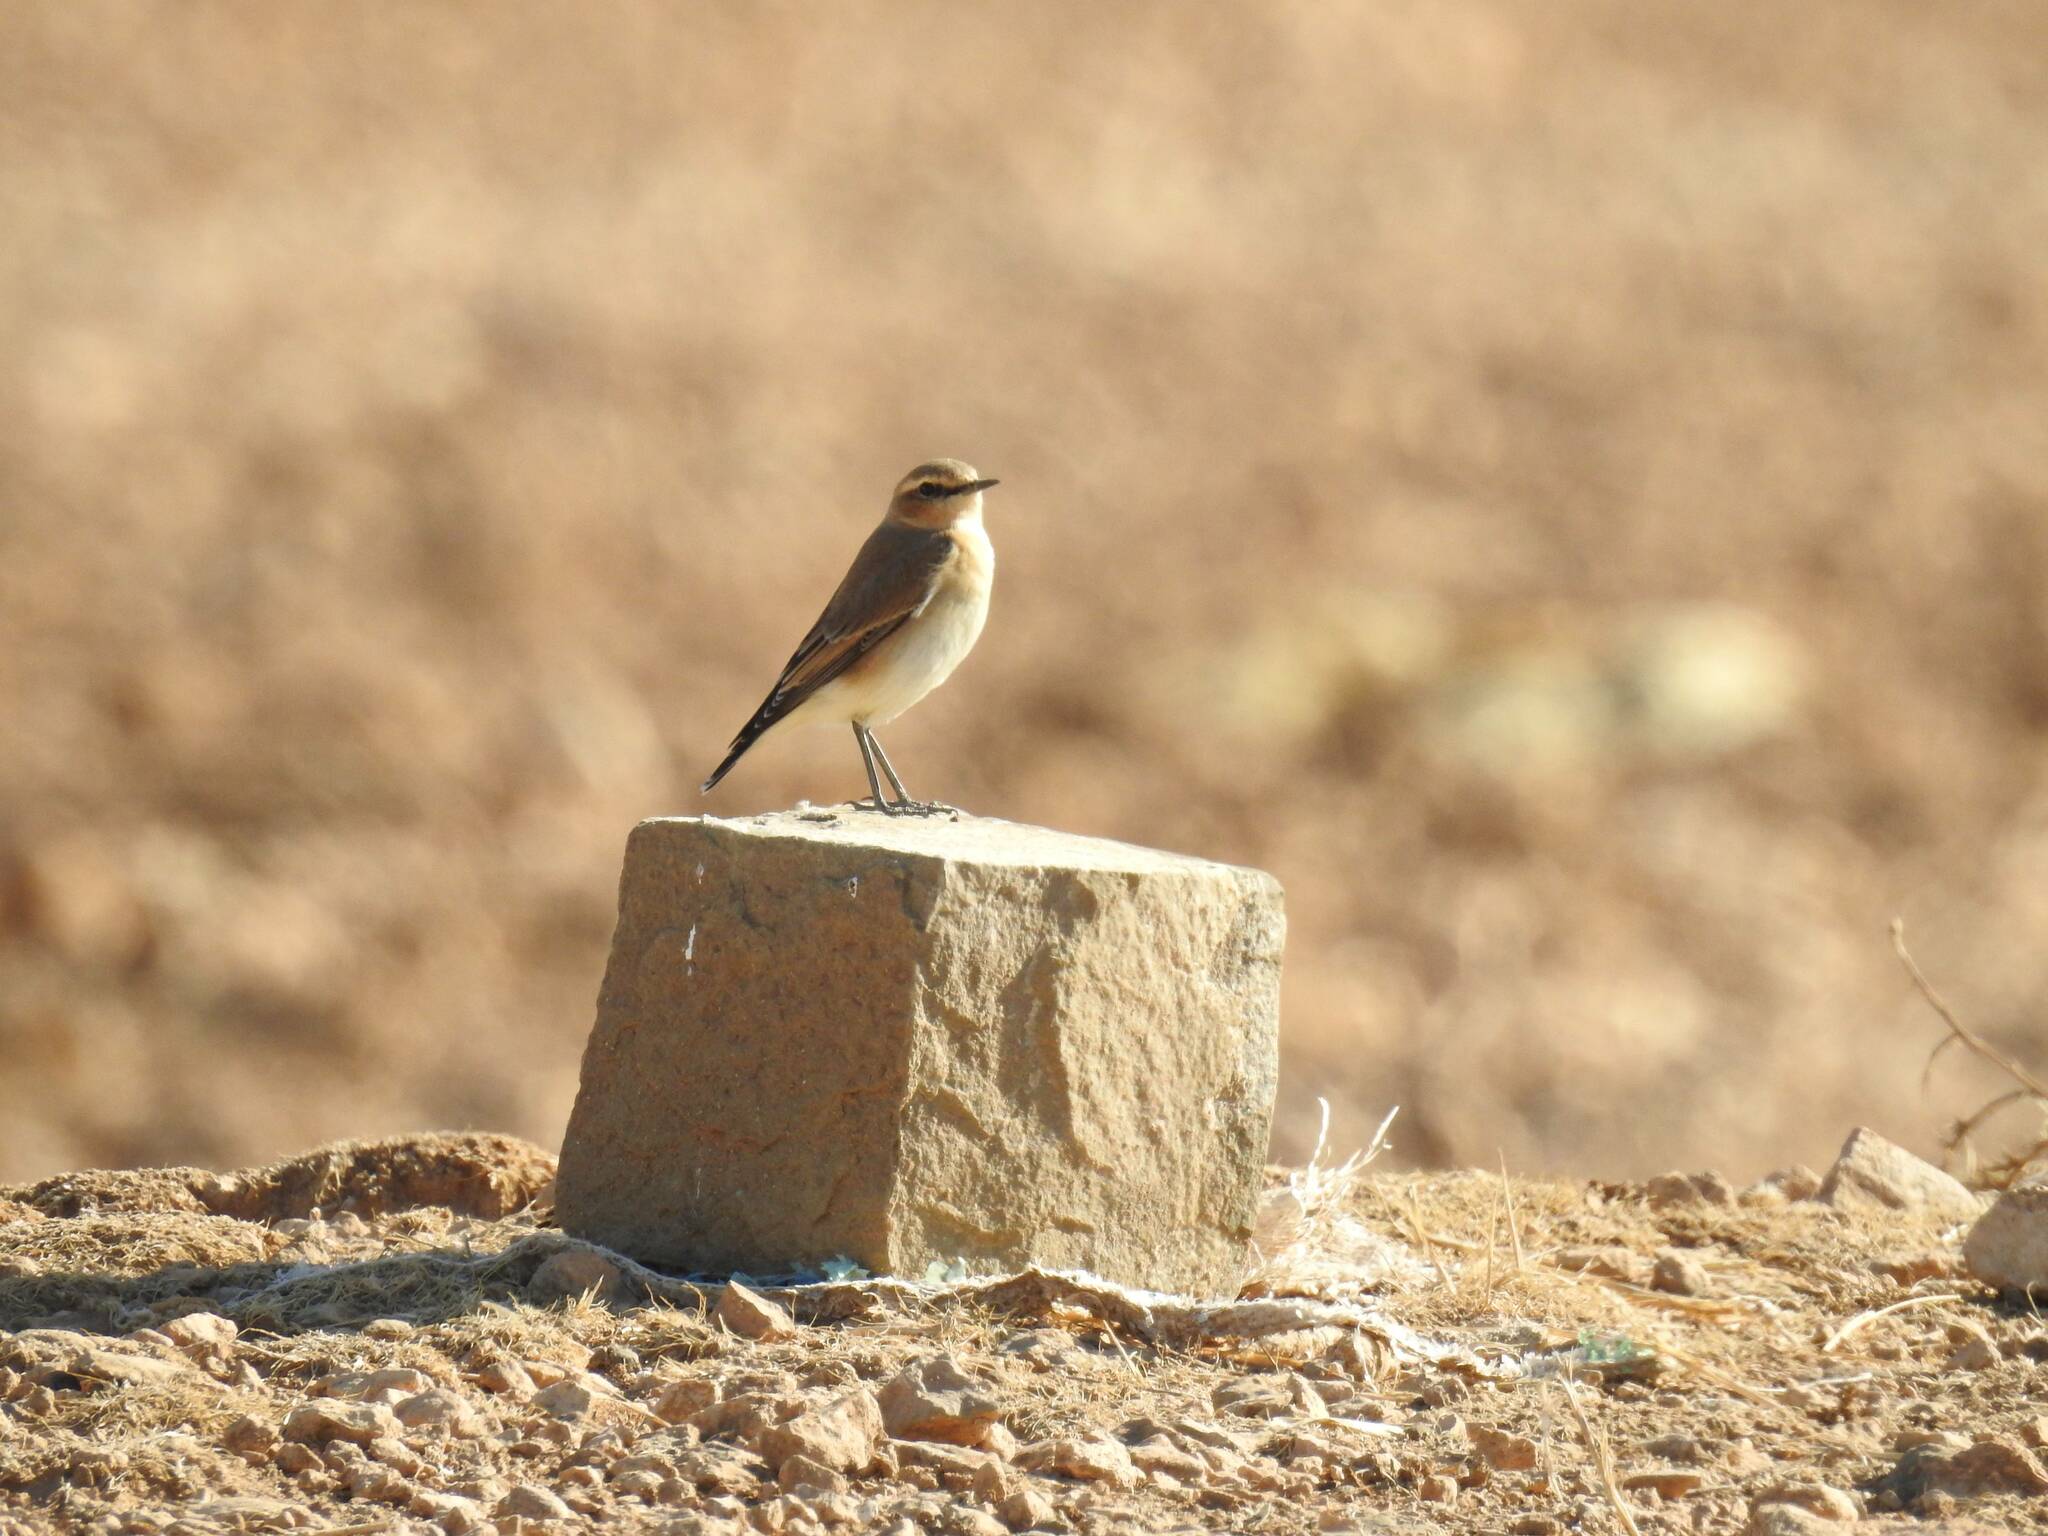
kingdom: Animalia
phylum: Chordata
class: Aves
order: Passeriformes
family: Muscicapidae
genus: Oenanthe
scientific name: Oenanthe oenanthe
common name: Northern wheatear
